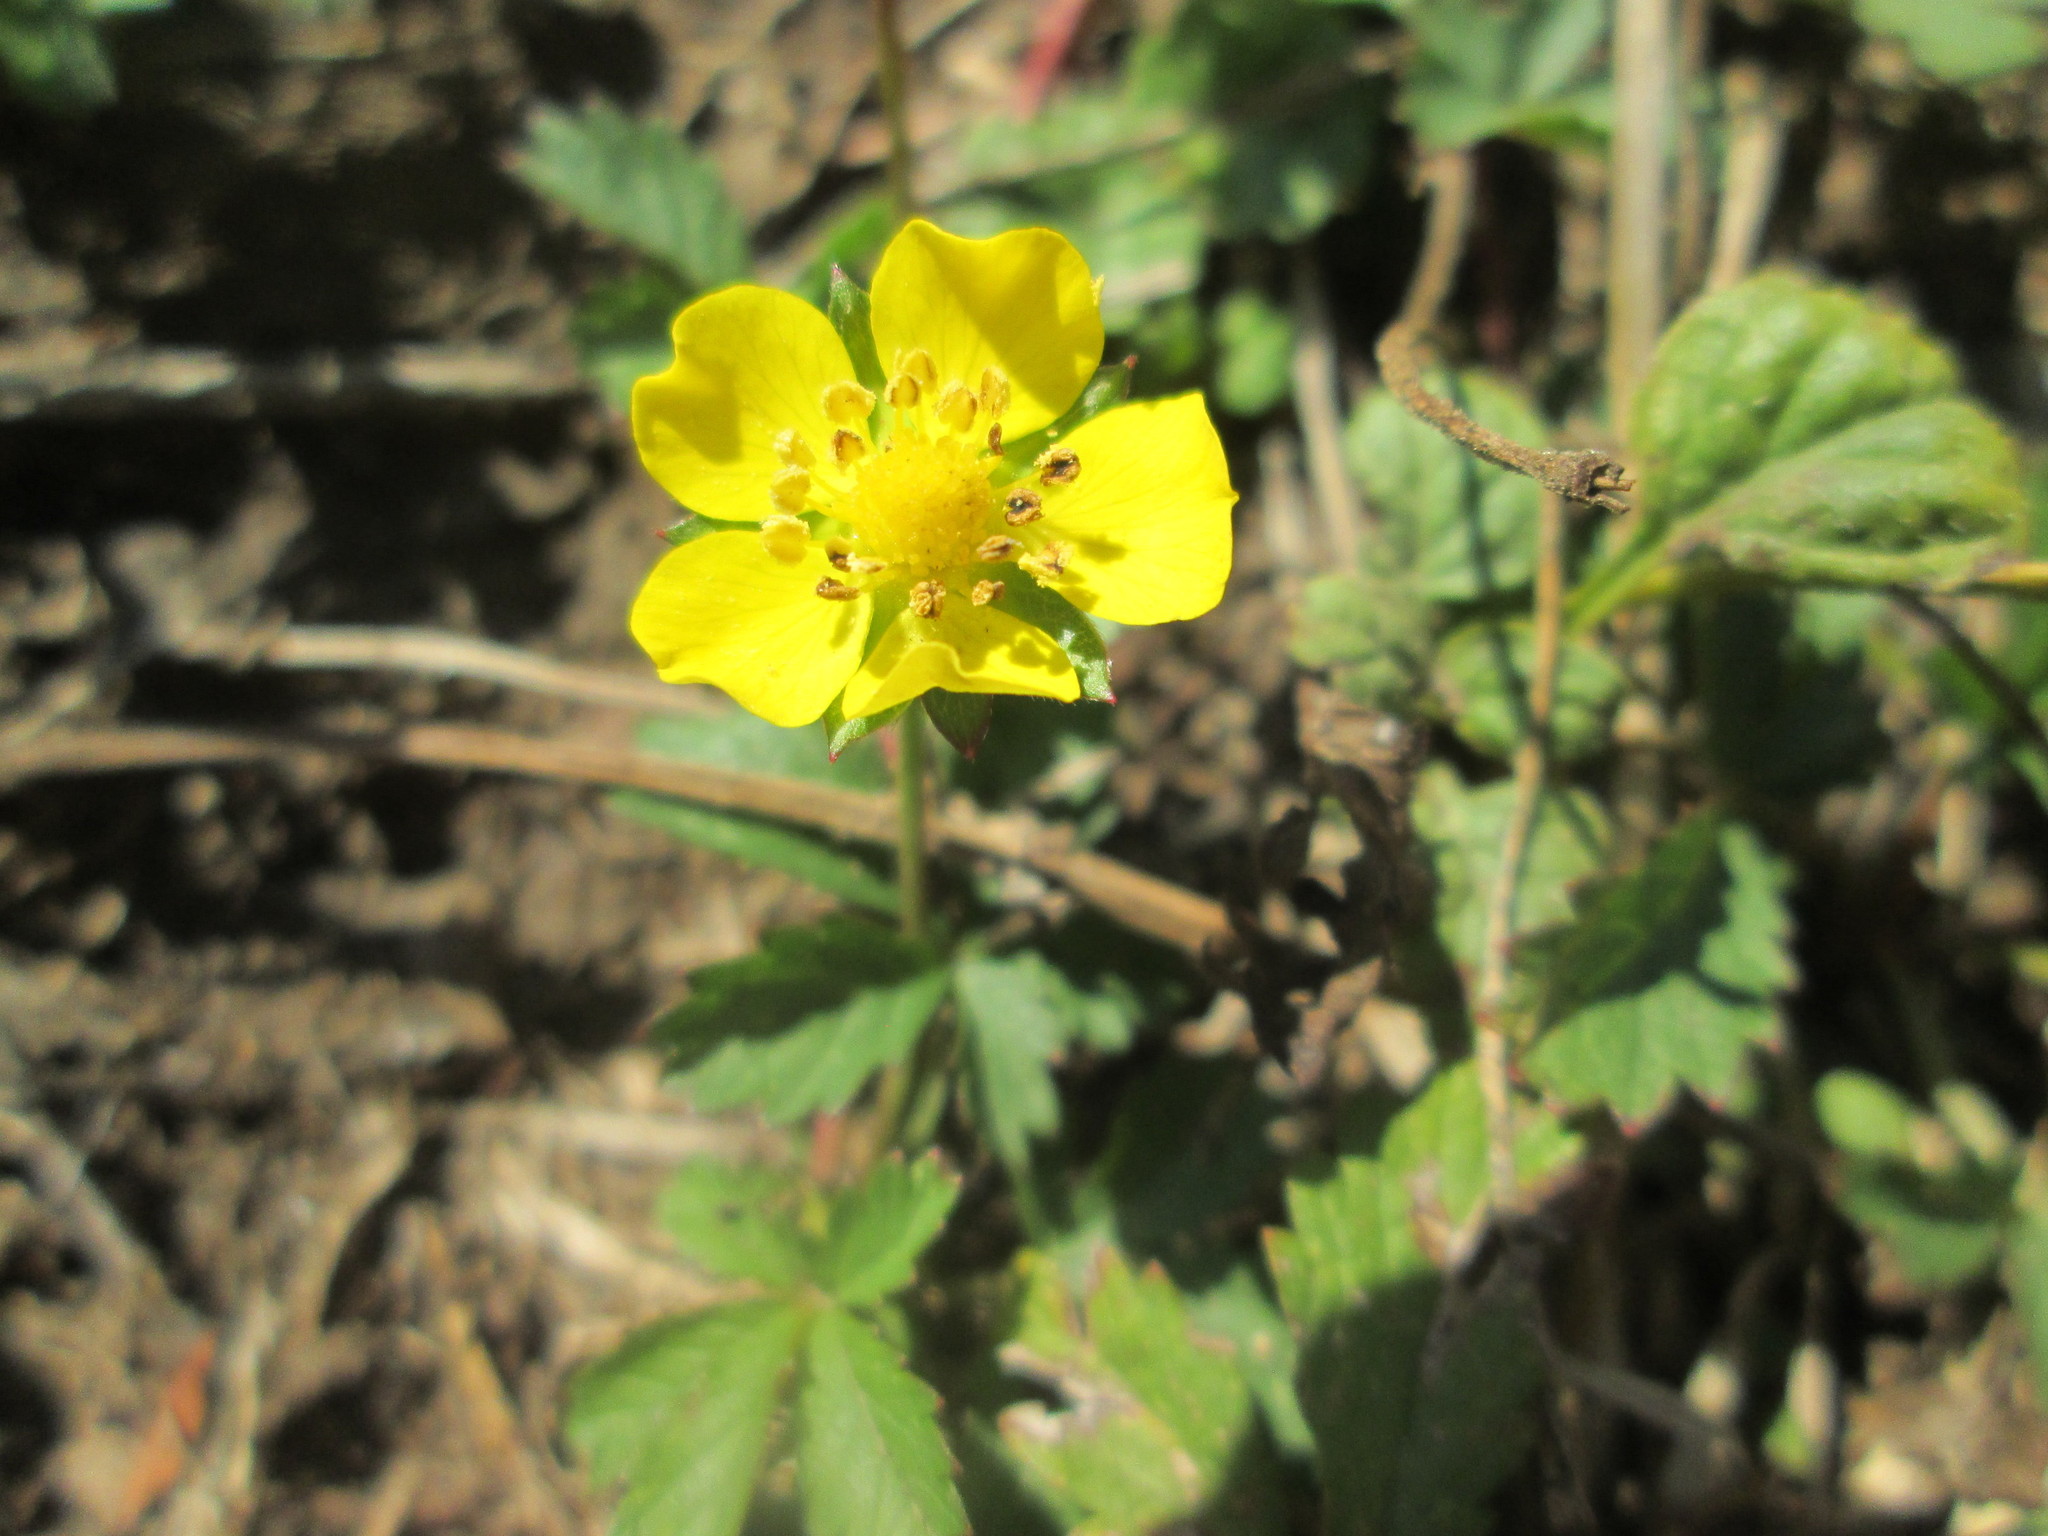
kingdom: Plantae
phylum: Tracheophyta
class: Magnoliopsida
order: Rosales
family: Rosaceae
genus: Potentilla
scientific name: Potentilla reptans
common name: Creeping cinquefoil
